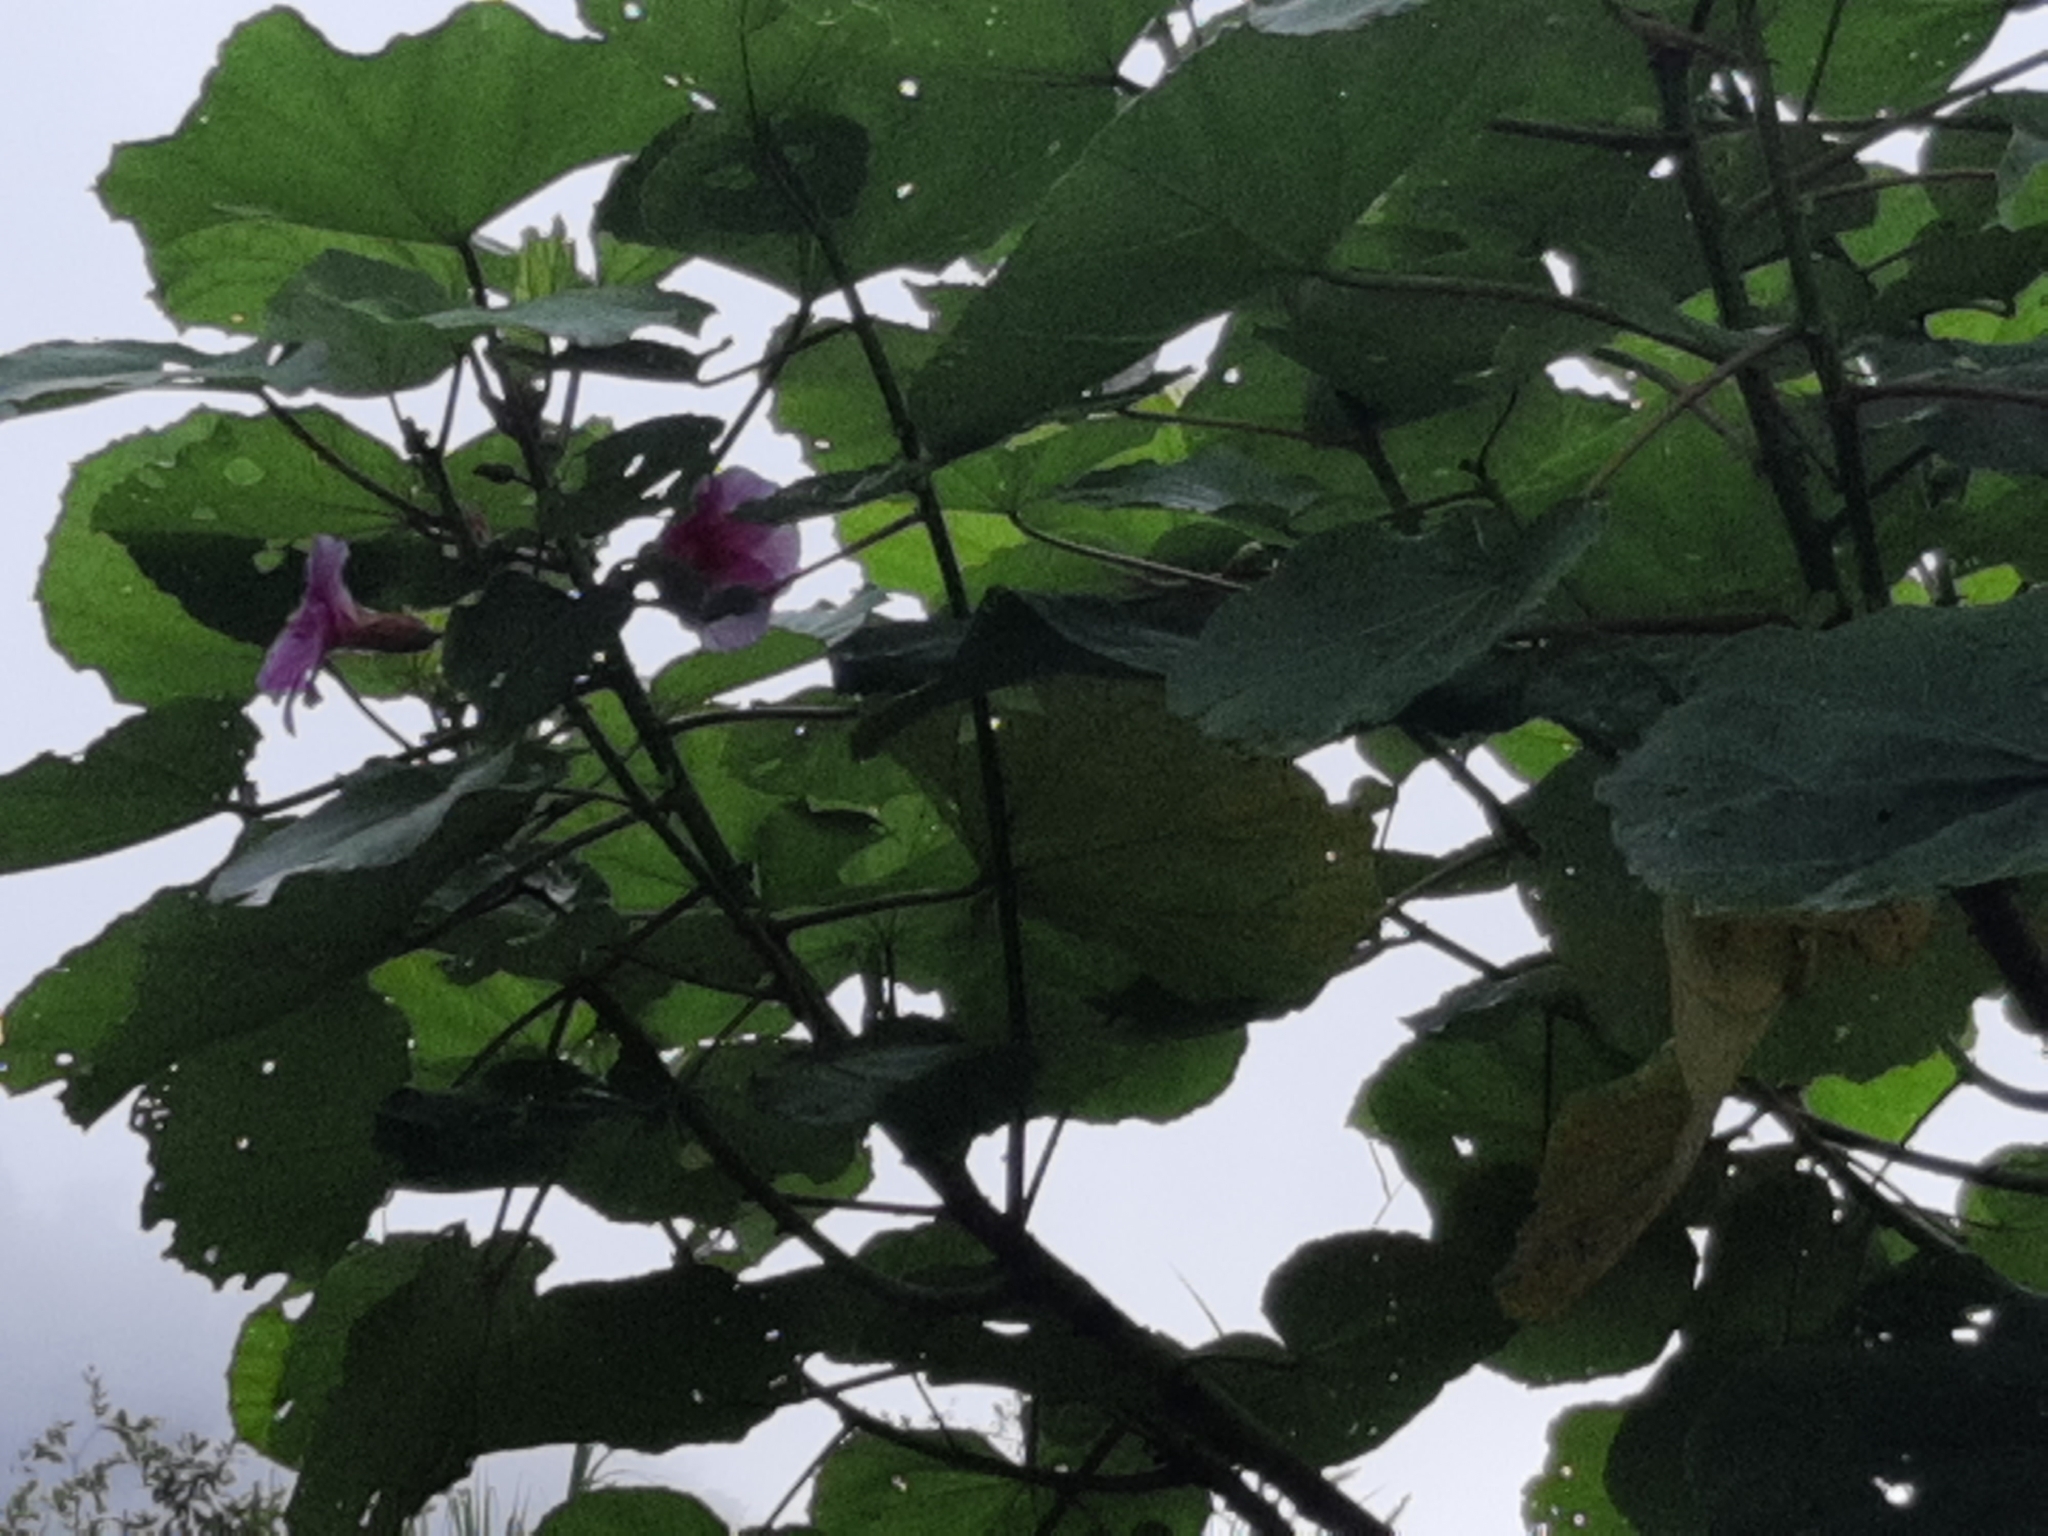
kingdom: Plantae
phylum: Tracheophyta
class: Magnoliopsida
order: Malvales
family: Malvaceae
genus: Wercklea
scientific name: Wercklea insignis
